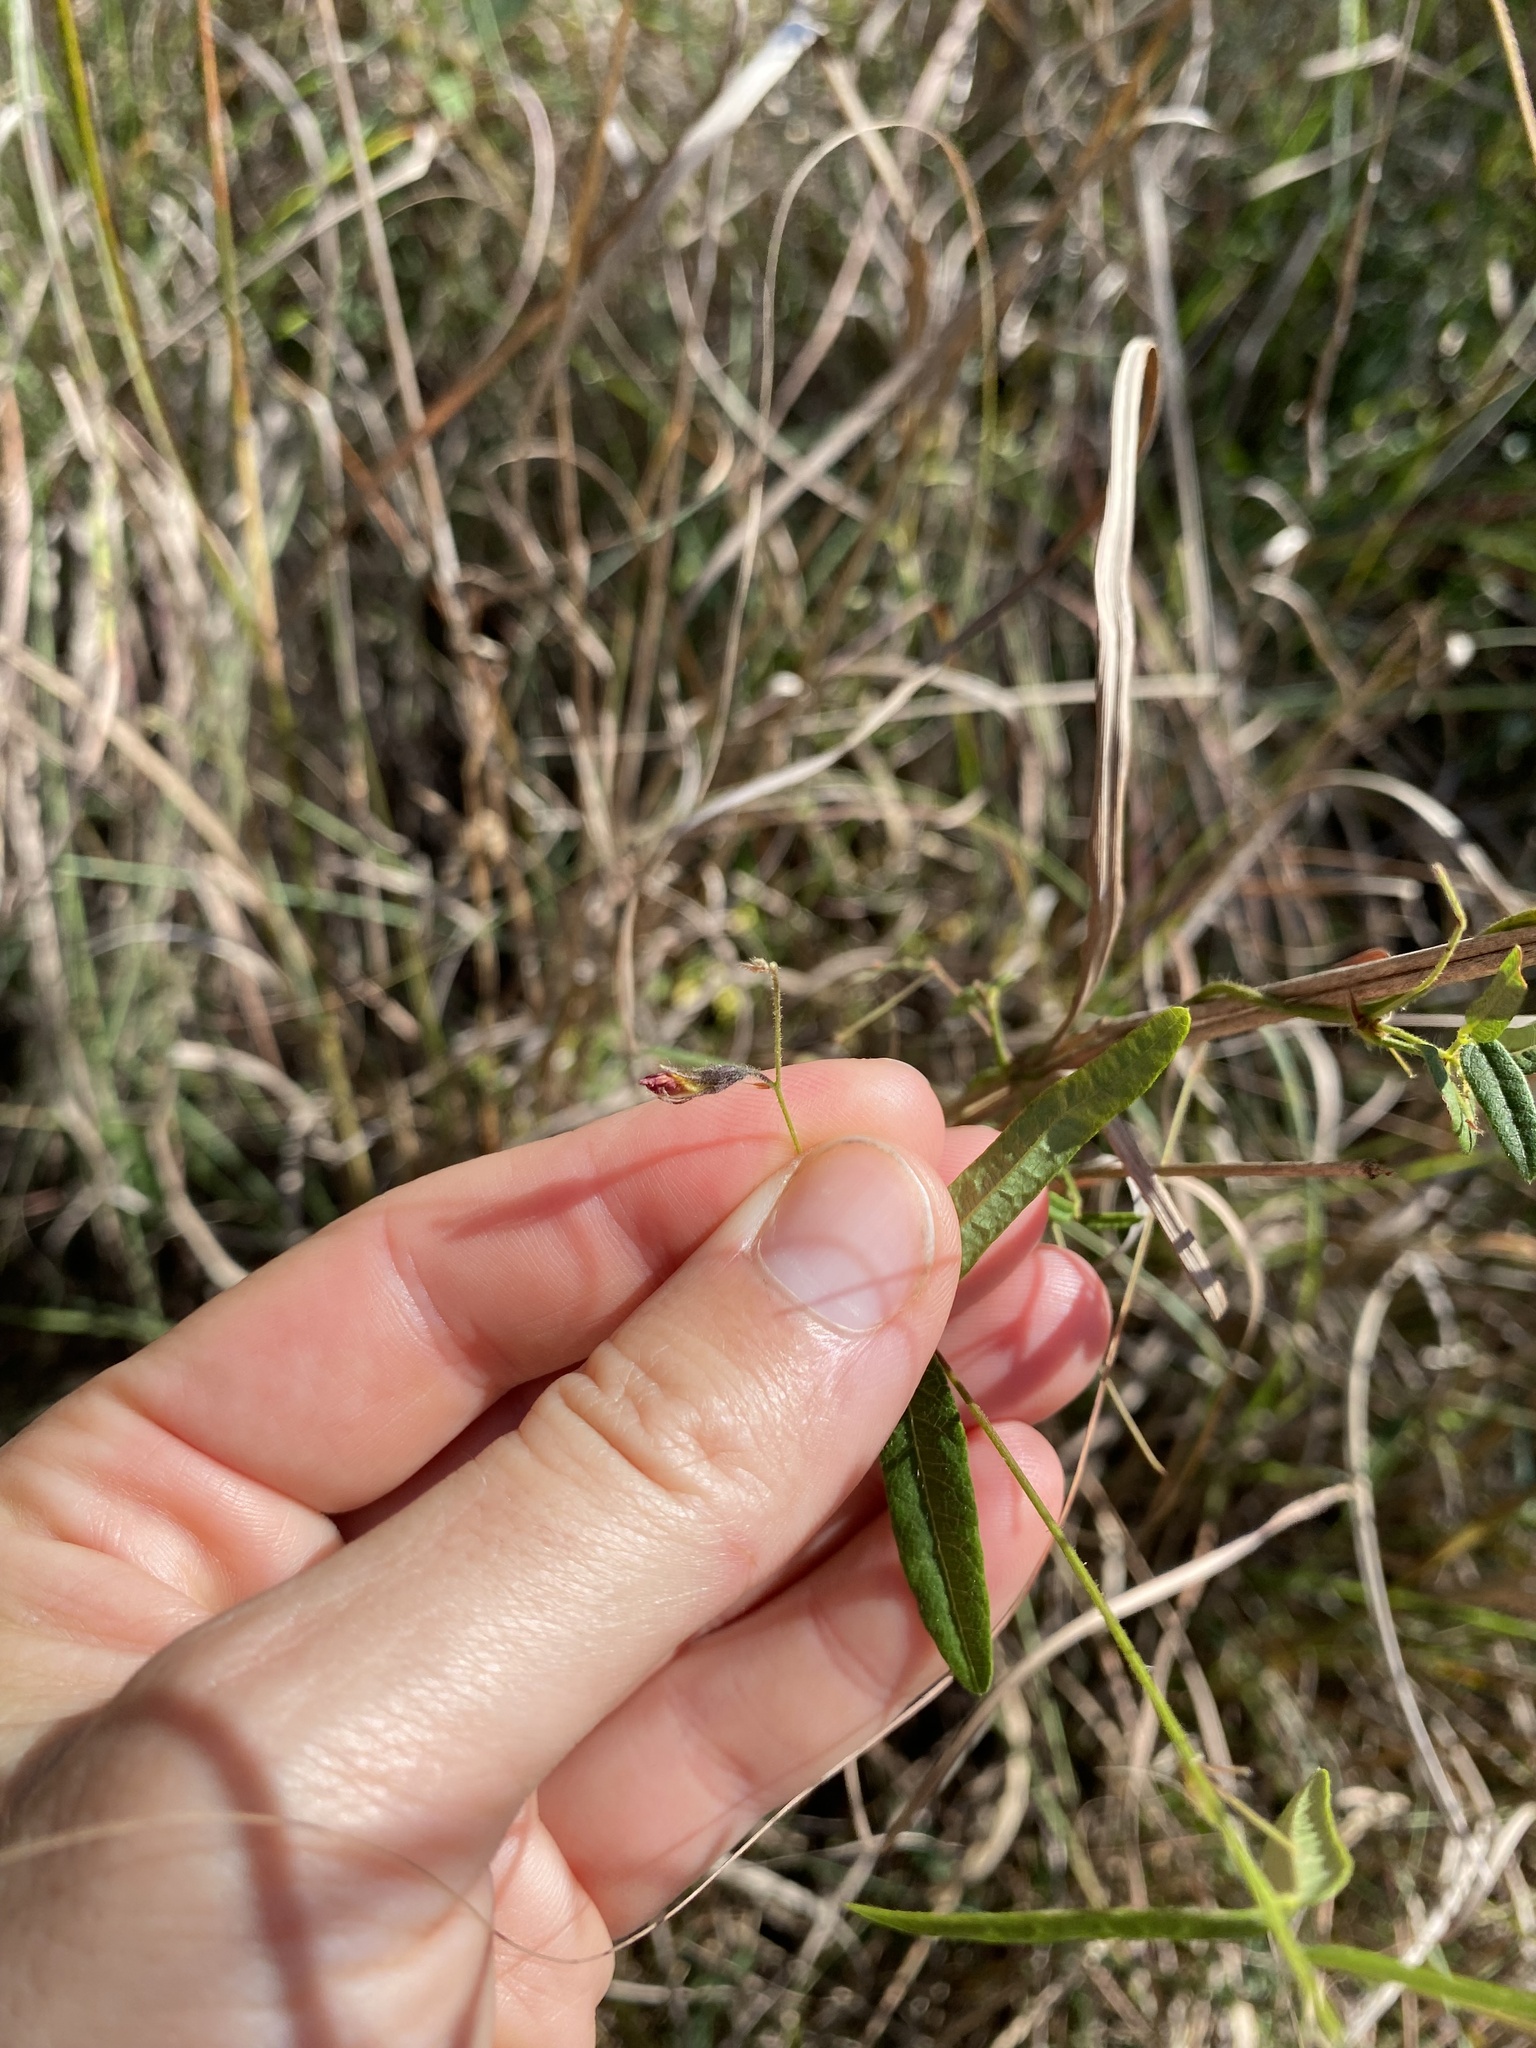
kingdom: Plantae
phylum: Tracheophyta
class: Magnoliopsida
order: Fabales
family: Fabaceae
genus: Rhynchosia
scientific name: Rhynchosia totta
